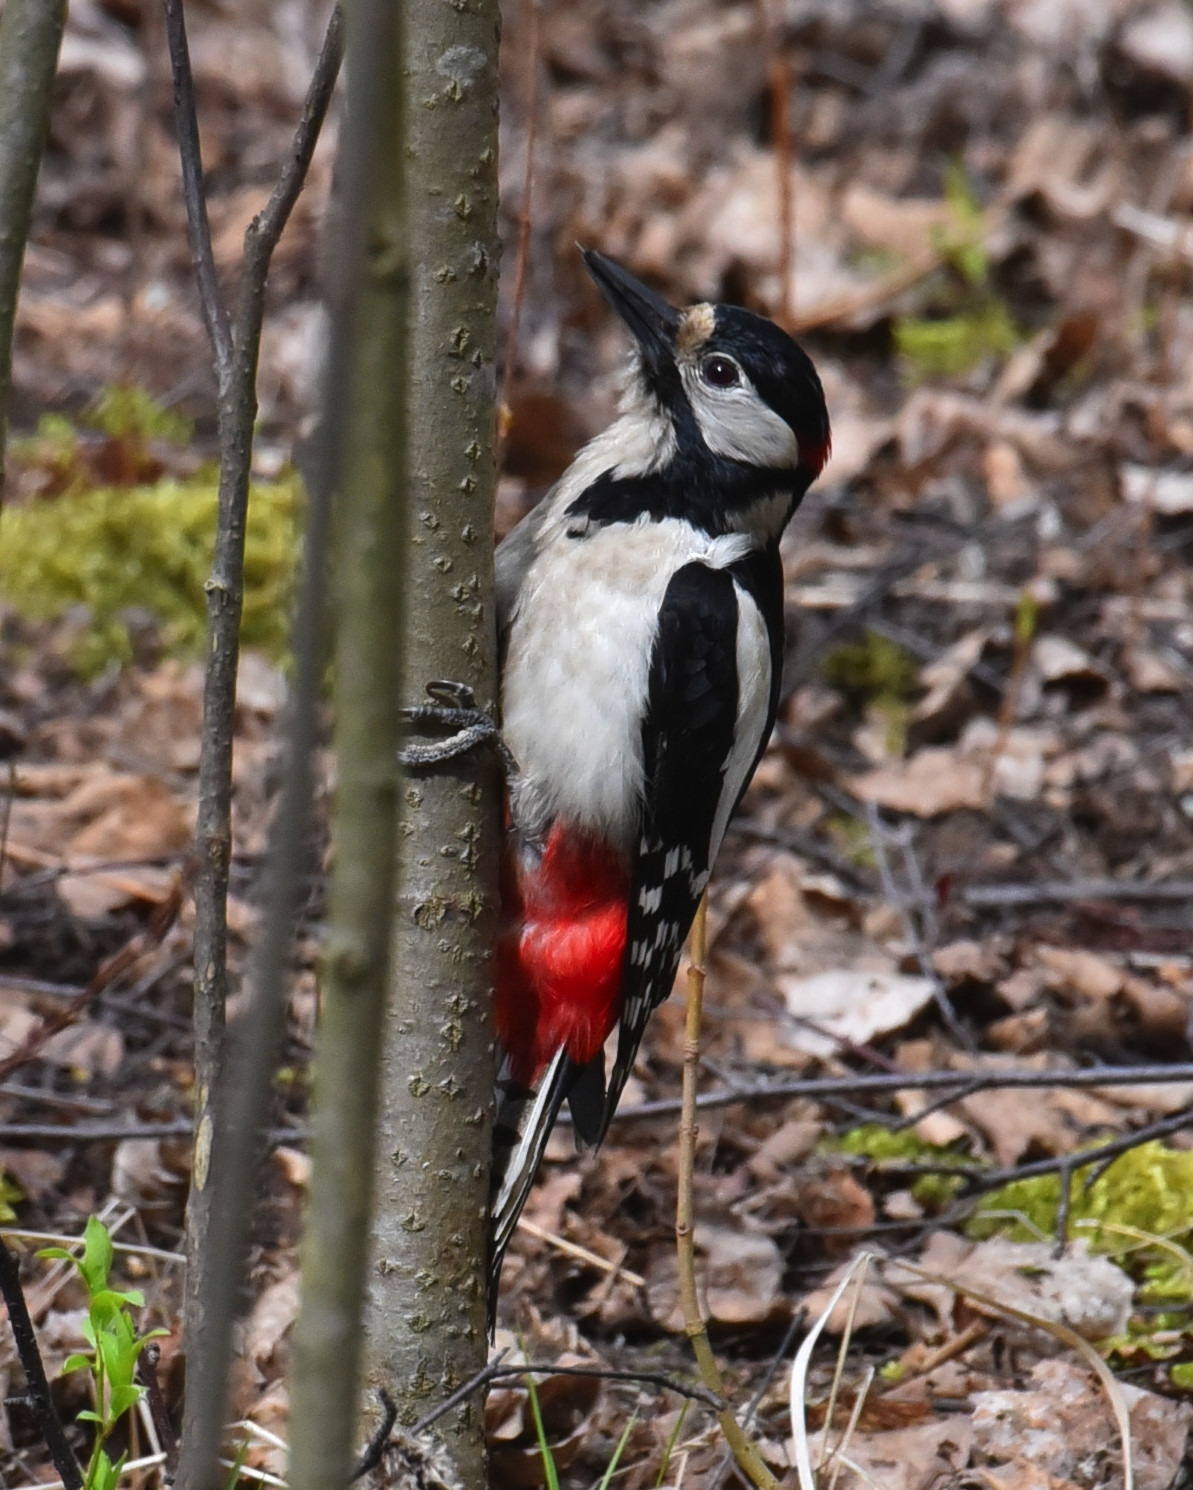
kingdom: Animalia
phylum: Chordata
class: Aves
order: Piciformes
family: Picidae
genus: Dendrocopos
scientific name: Dendrocopos major
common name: Great spotted woodpecker
